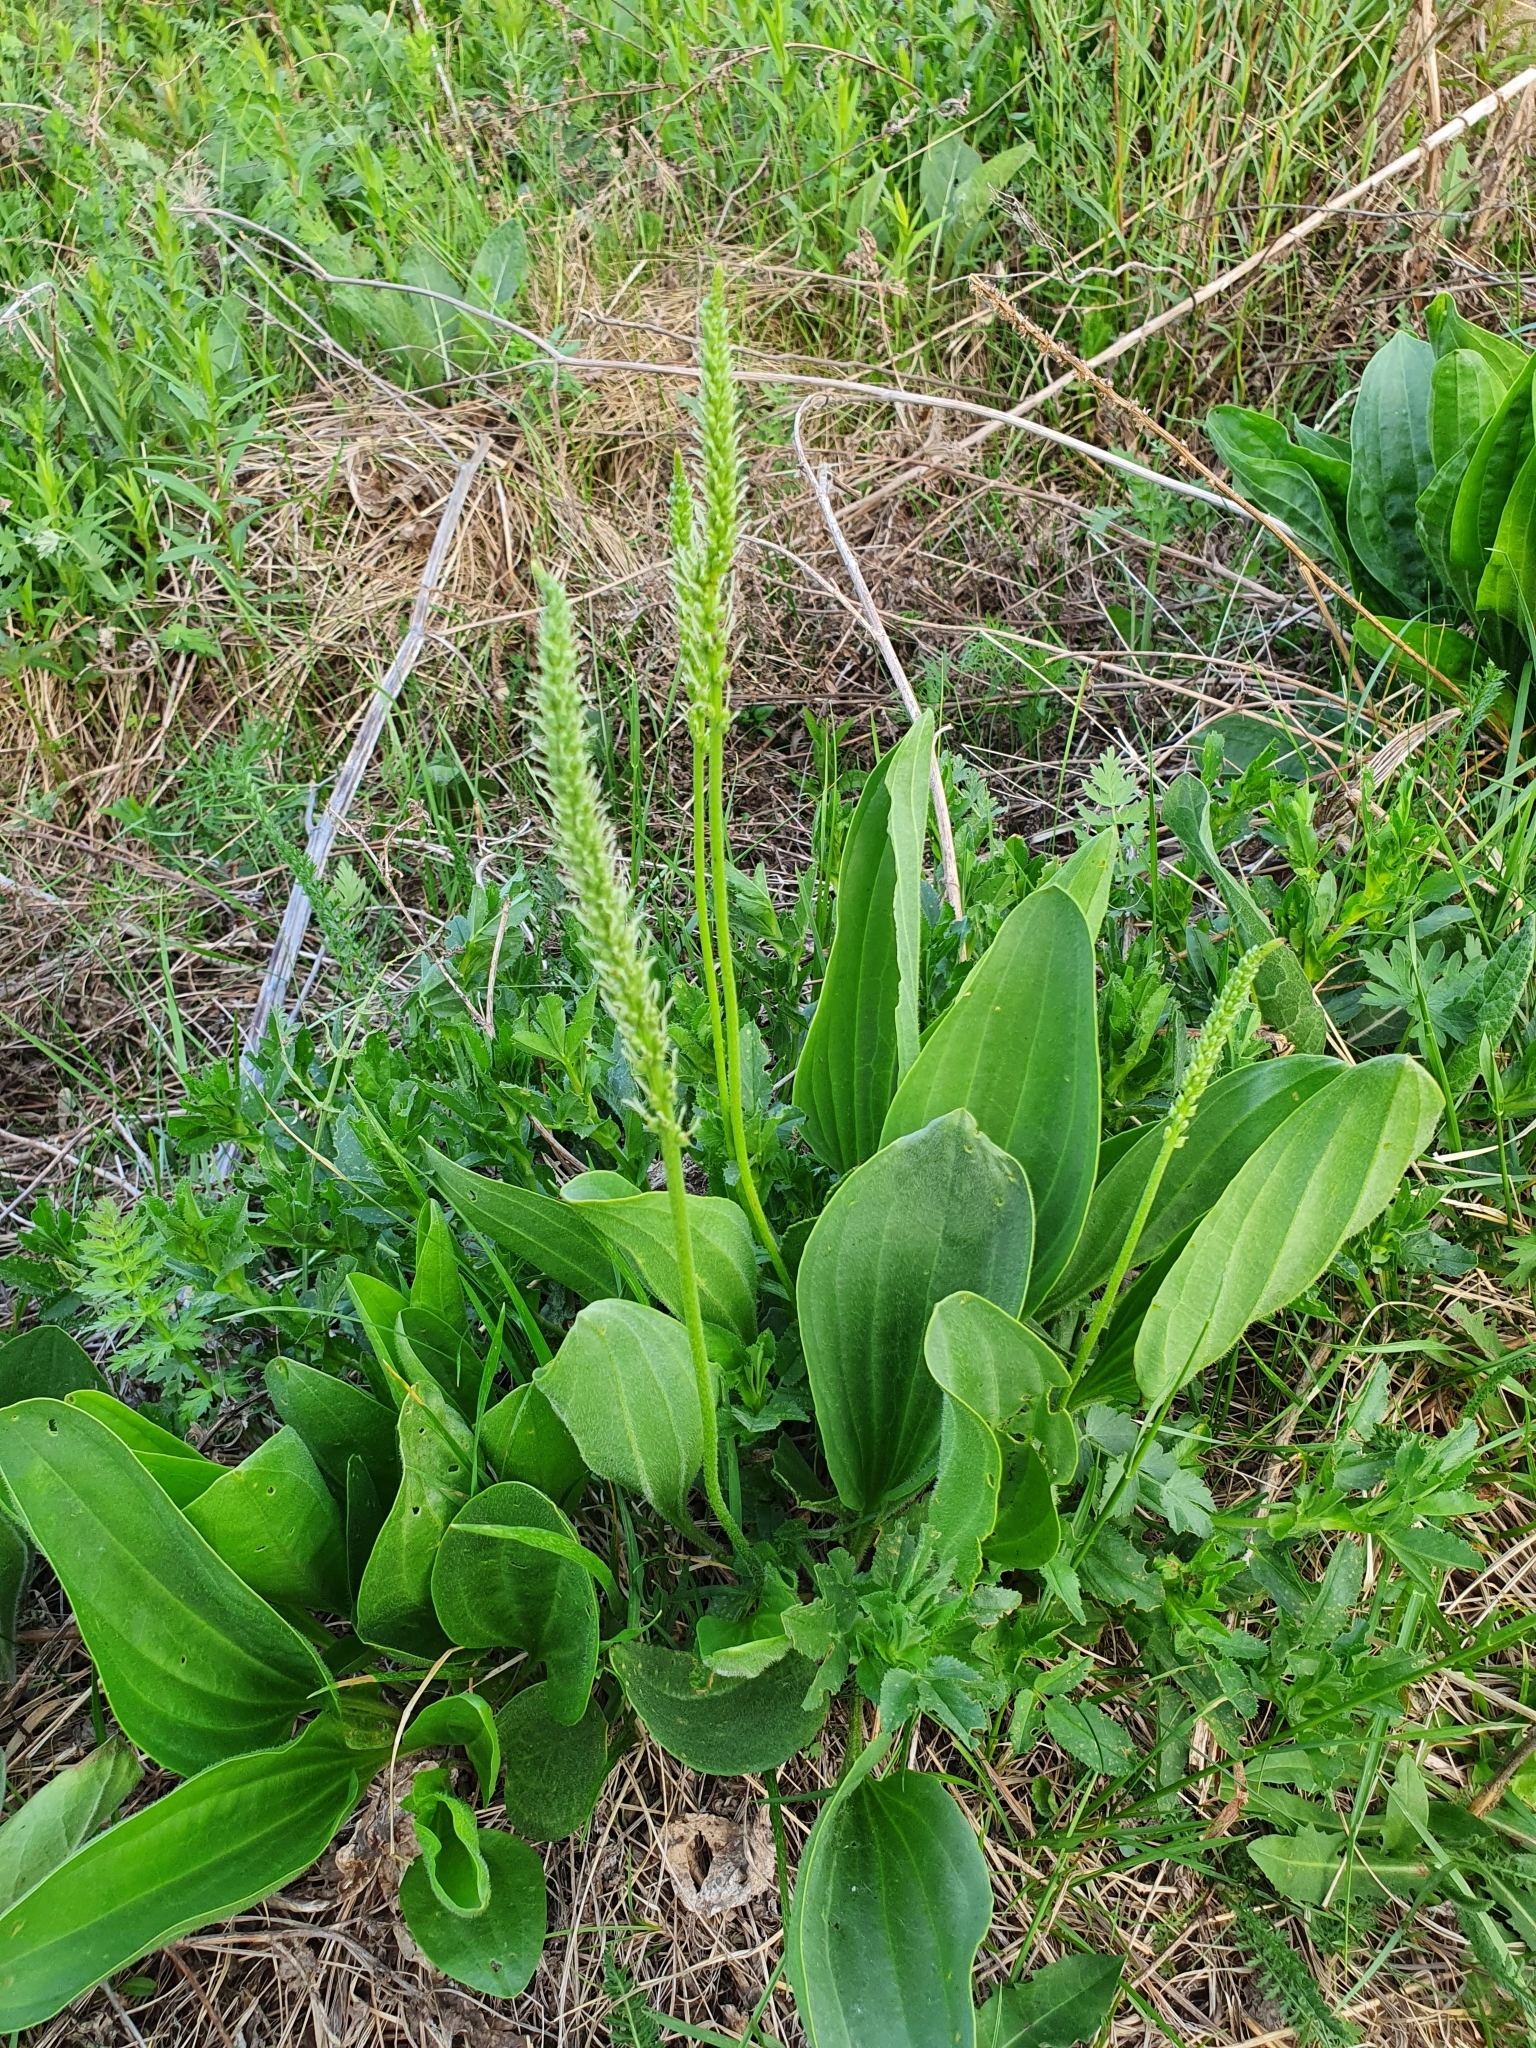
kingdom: Plantae
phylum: Tracheophyta
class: Magnoliopsida
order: Lamiales
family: Plantaginaceae
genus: Plantago
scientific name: Plantago cornuti
